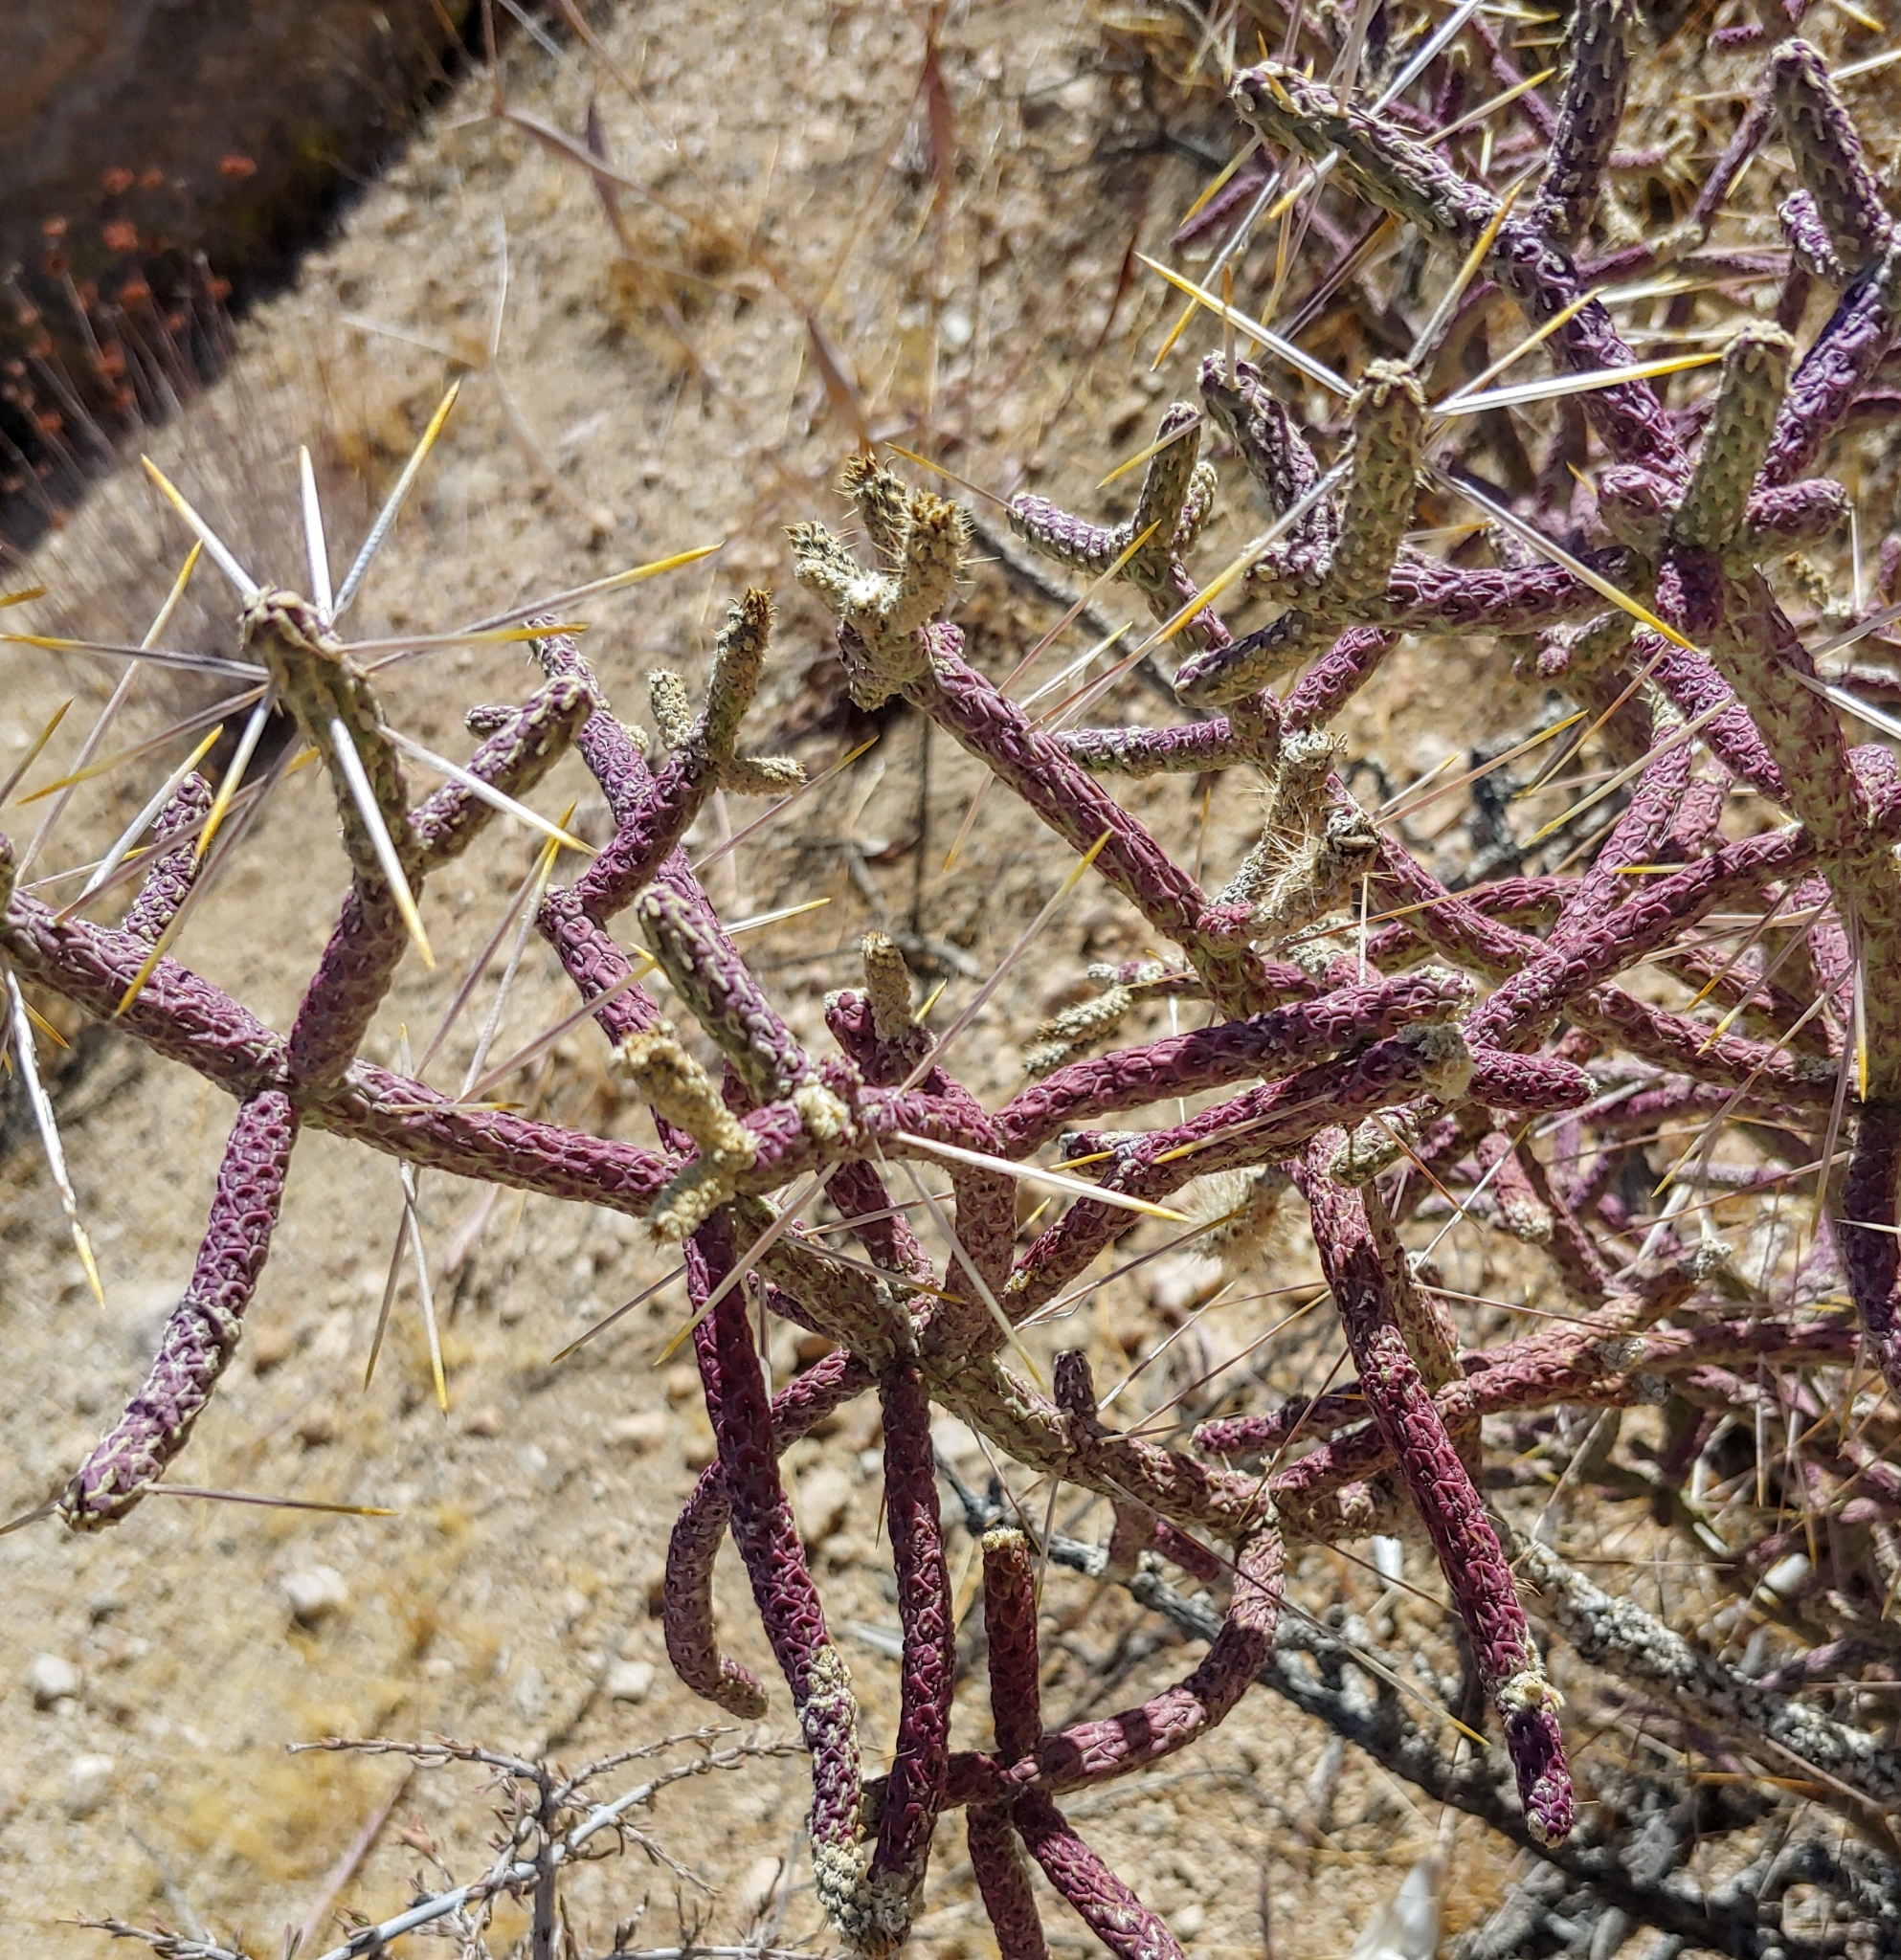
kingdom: Plantae
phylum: Tracheophyta
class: Magnoliopsida
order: Caryophyllales
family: Cactaceae
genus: Cylindropuntia
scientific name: Cylindropuntia ramosissima
